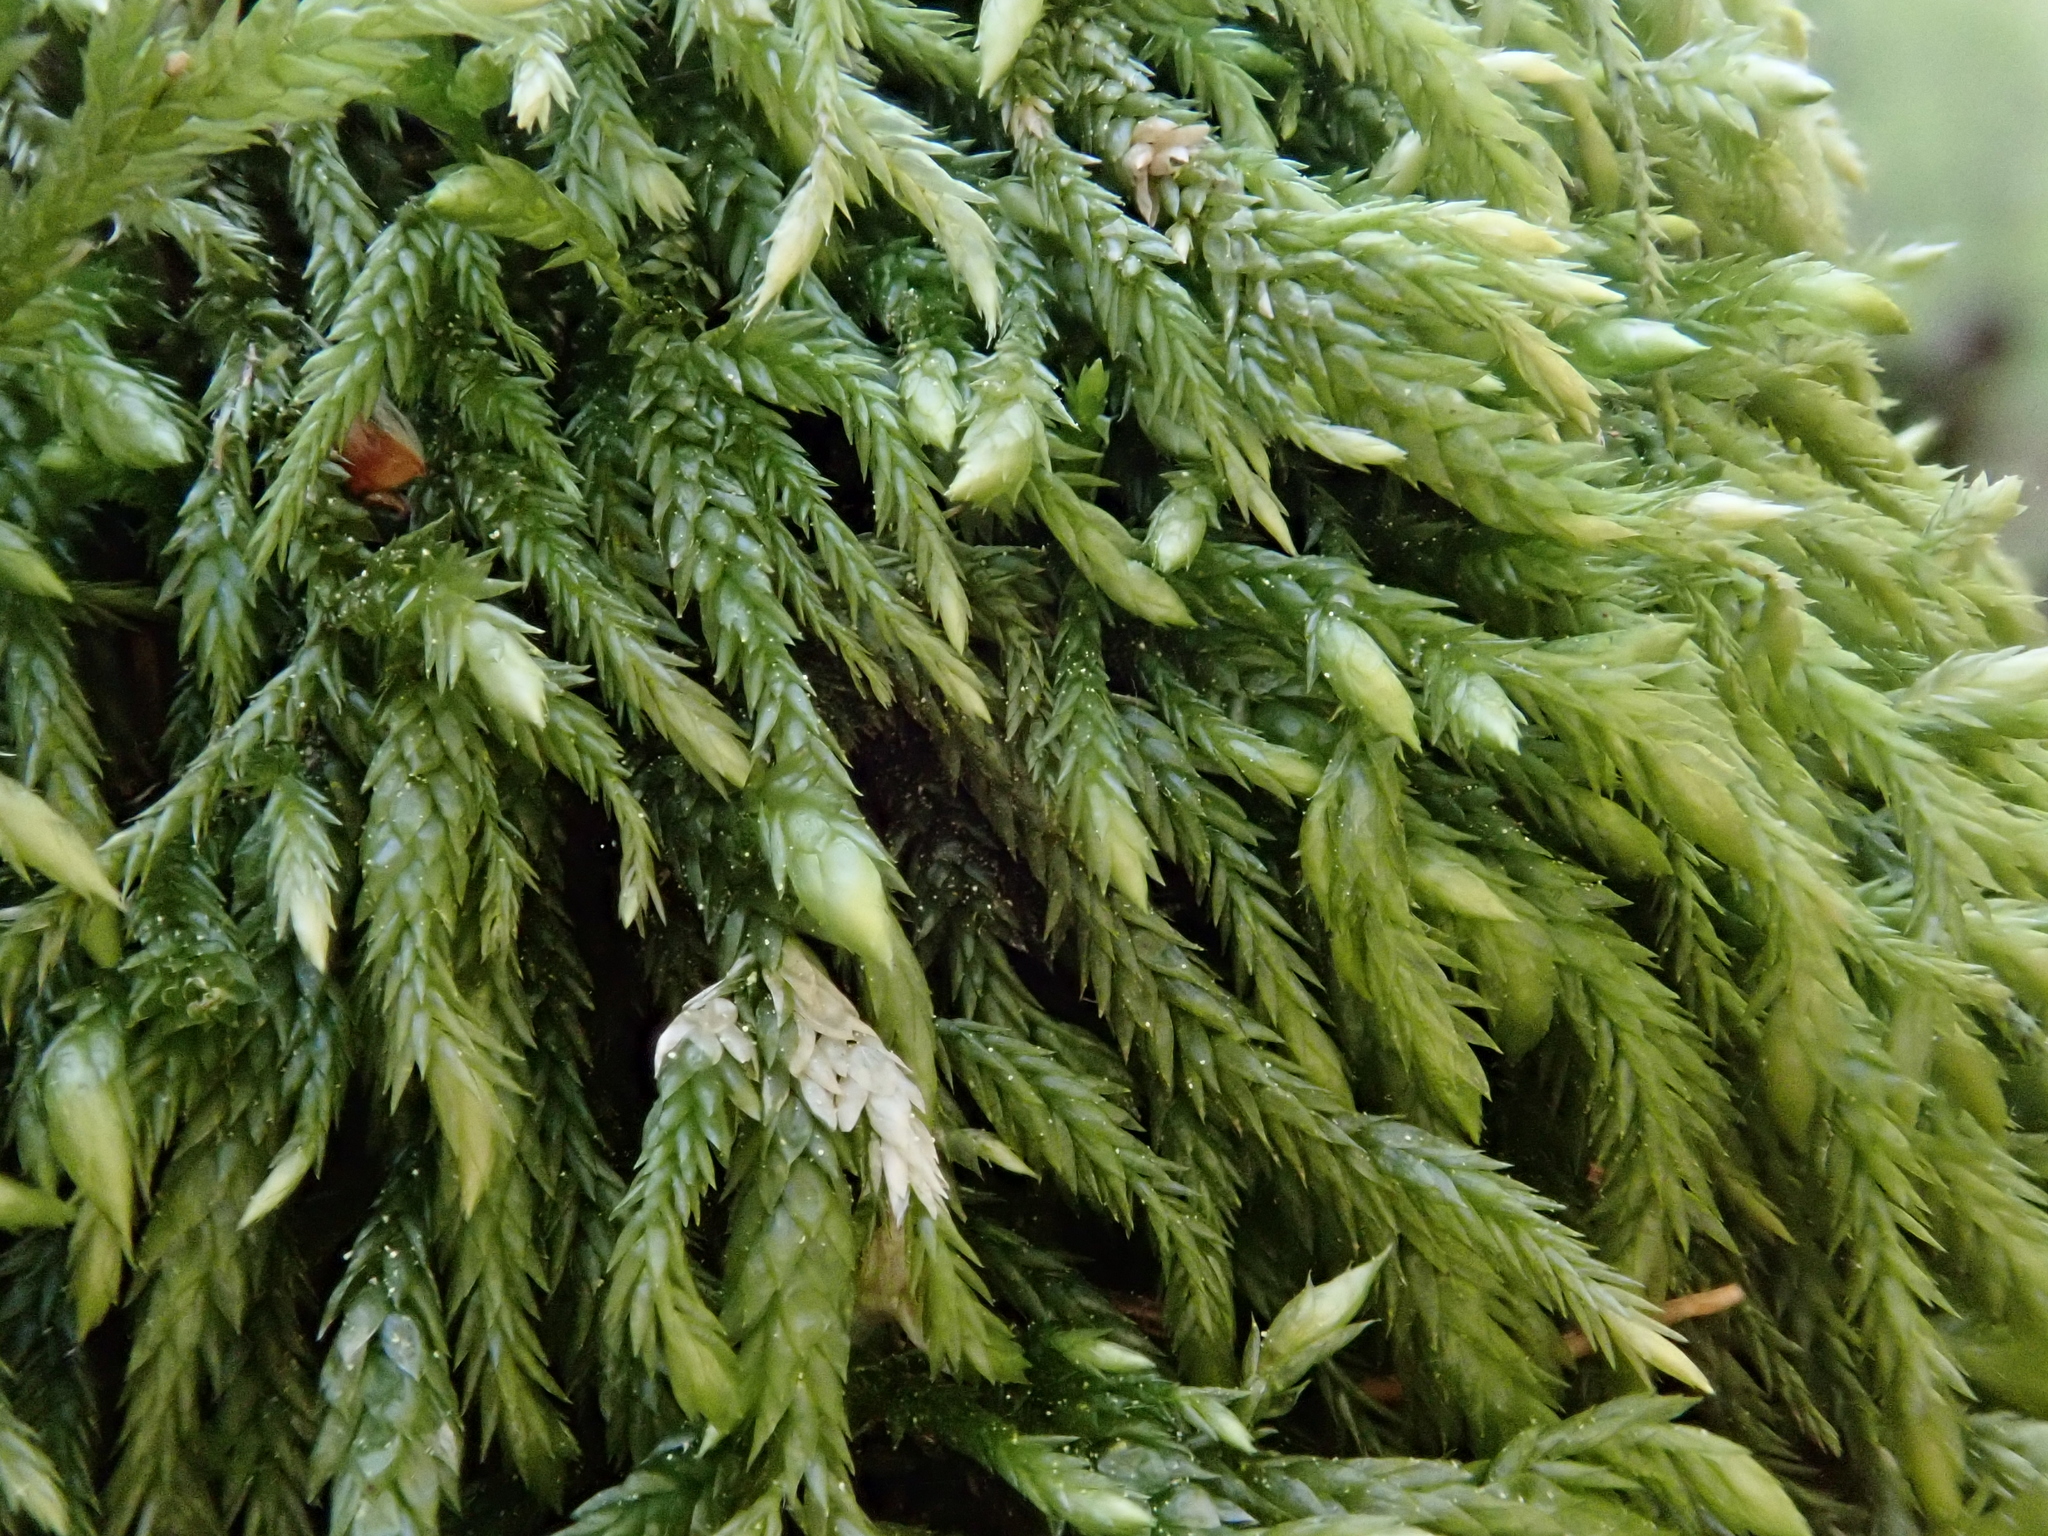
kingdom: Plantae
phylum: Bryophyta
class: Bryopsida
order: Hypnales
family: Lembophyllaceae
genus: Isothecium
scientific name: Isothecium alopecuroides
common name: Larger mouse-tail moss
